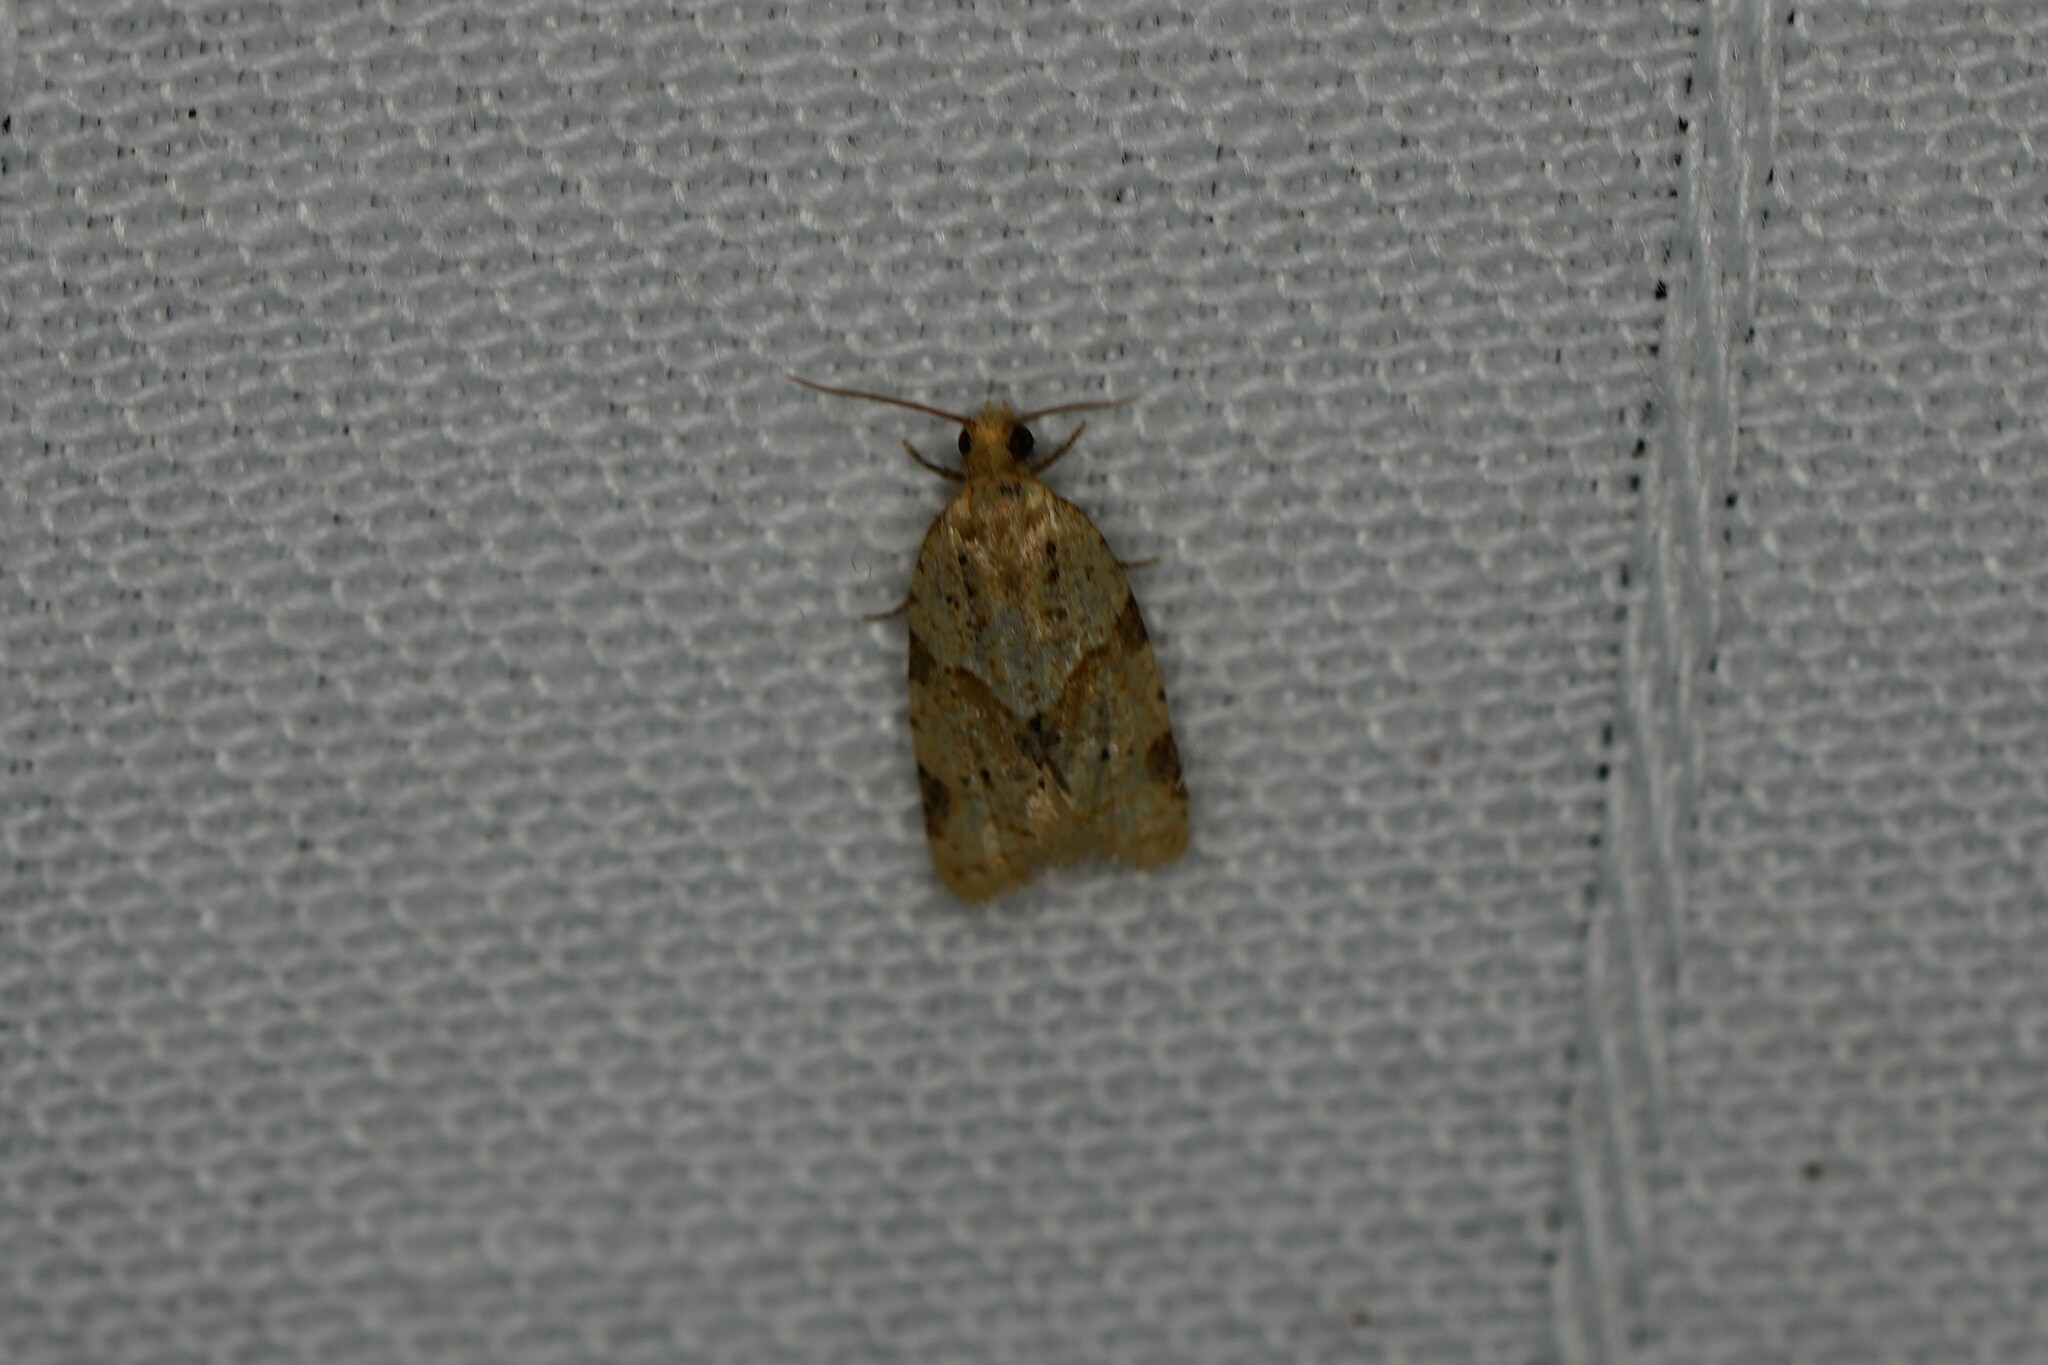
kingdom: Animalia
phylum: Arthropoda
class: Insecta
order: Lepidoptera
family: Tortricidae
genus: Clepsis
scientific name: Clepsis peritana
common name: Garden tortrix
